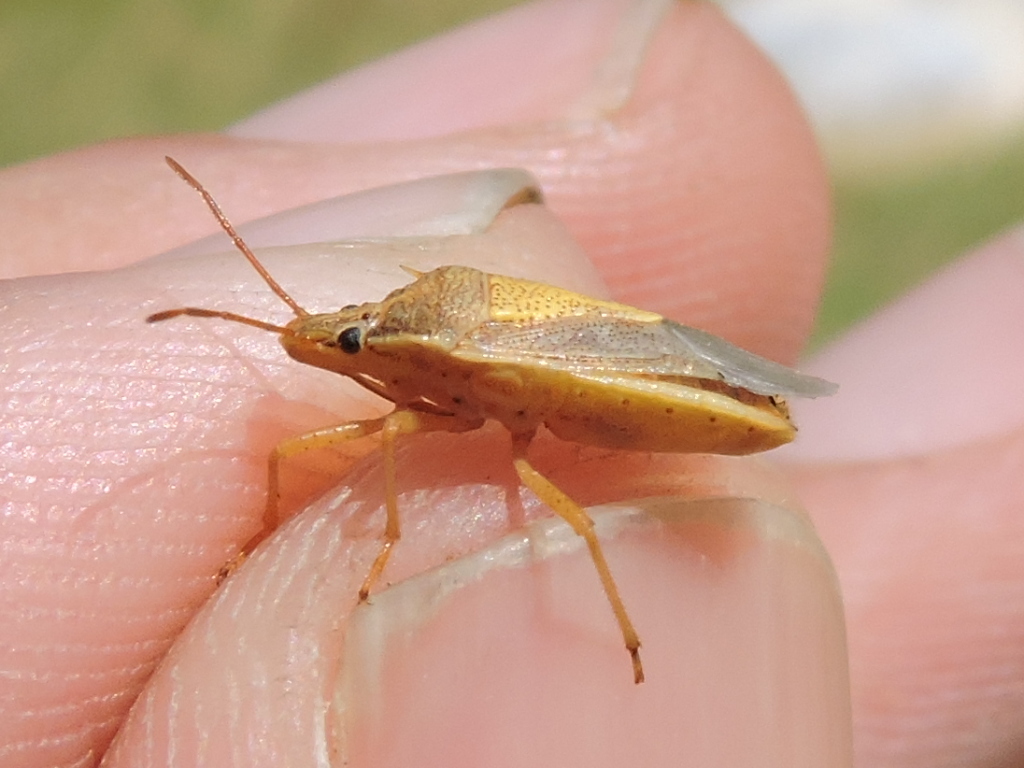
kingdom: Animalia
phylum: Arthropoda
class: Insecta
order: Hemiptera
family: Pentatomidae
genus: Oebalus
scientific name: Oebalus pugnax
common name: Rice stink bug
